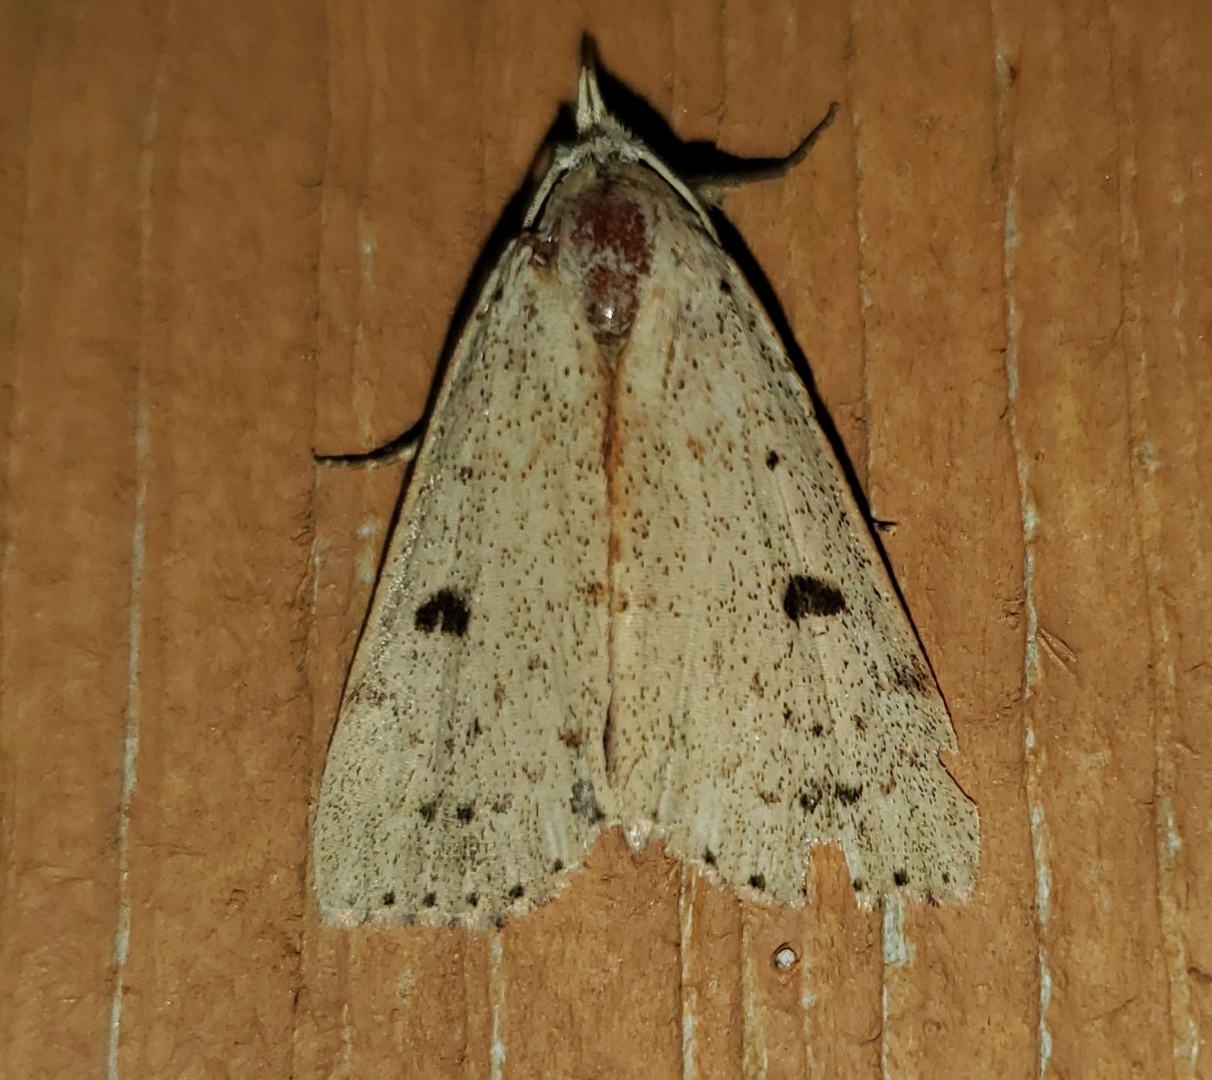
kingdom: Animalia
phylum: Arthropoda
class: Insecta
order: Lepidoptera
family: Erebidae
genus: Scolecocampa
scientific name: Scolecocampa liburna
